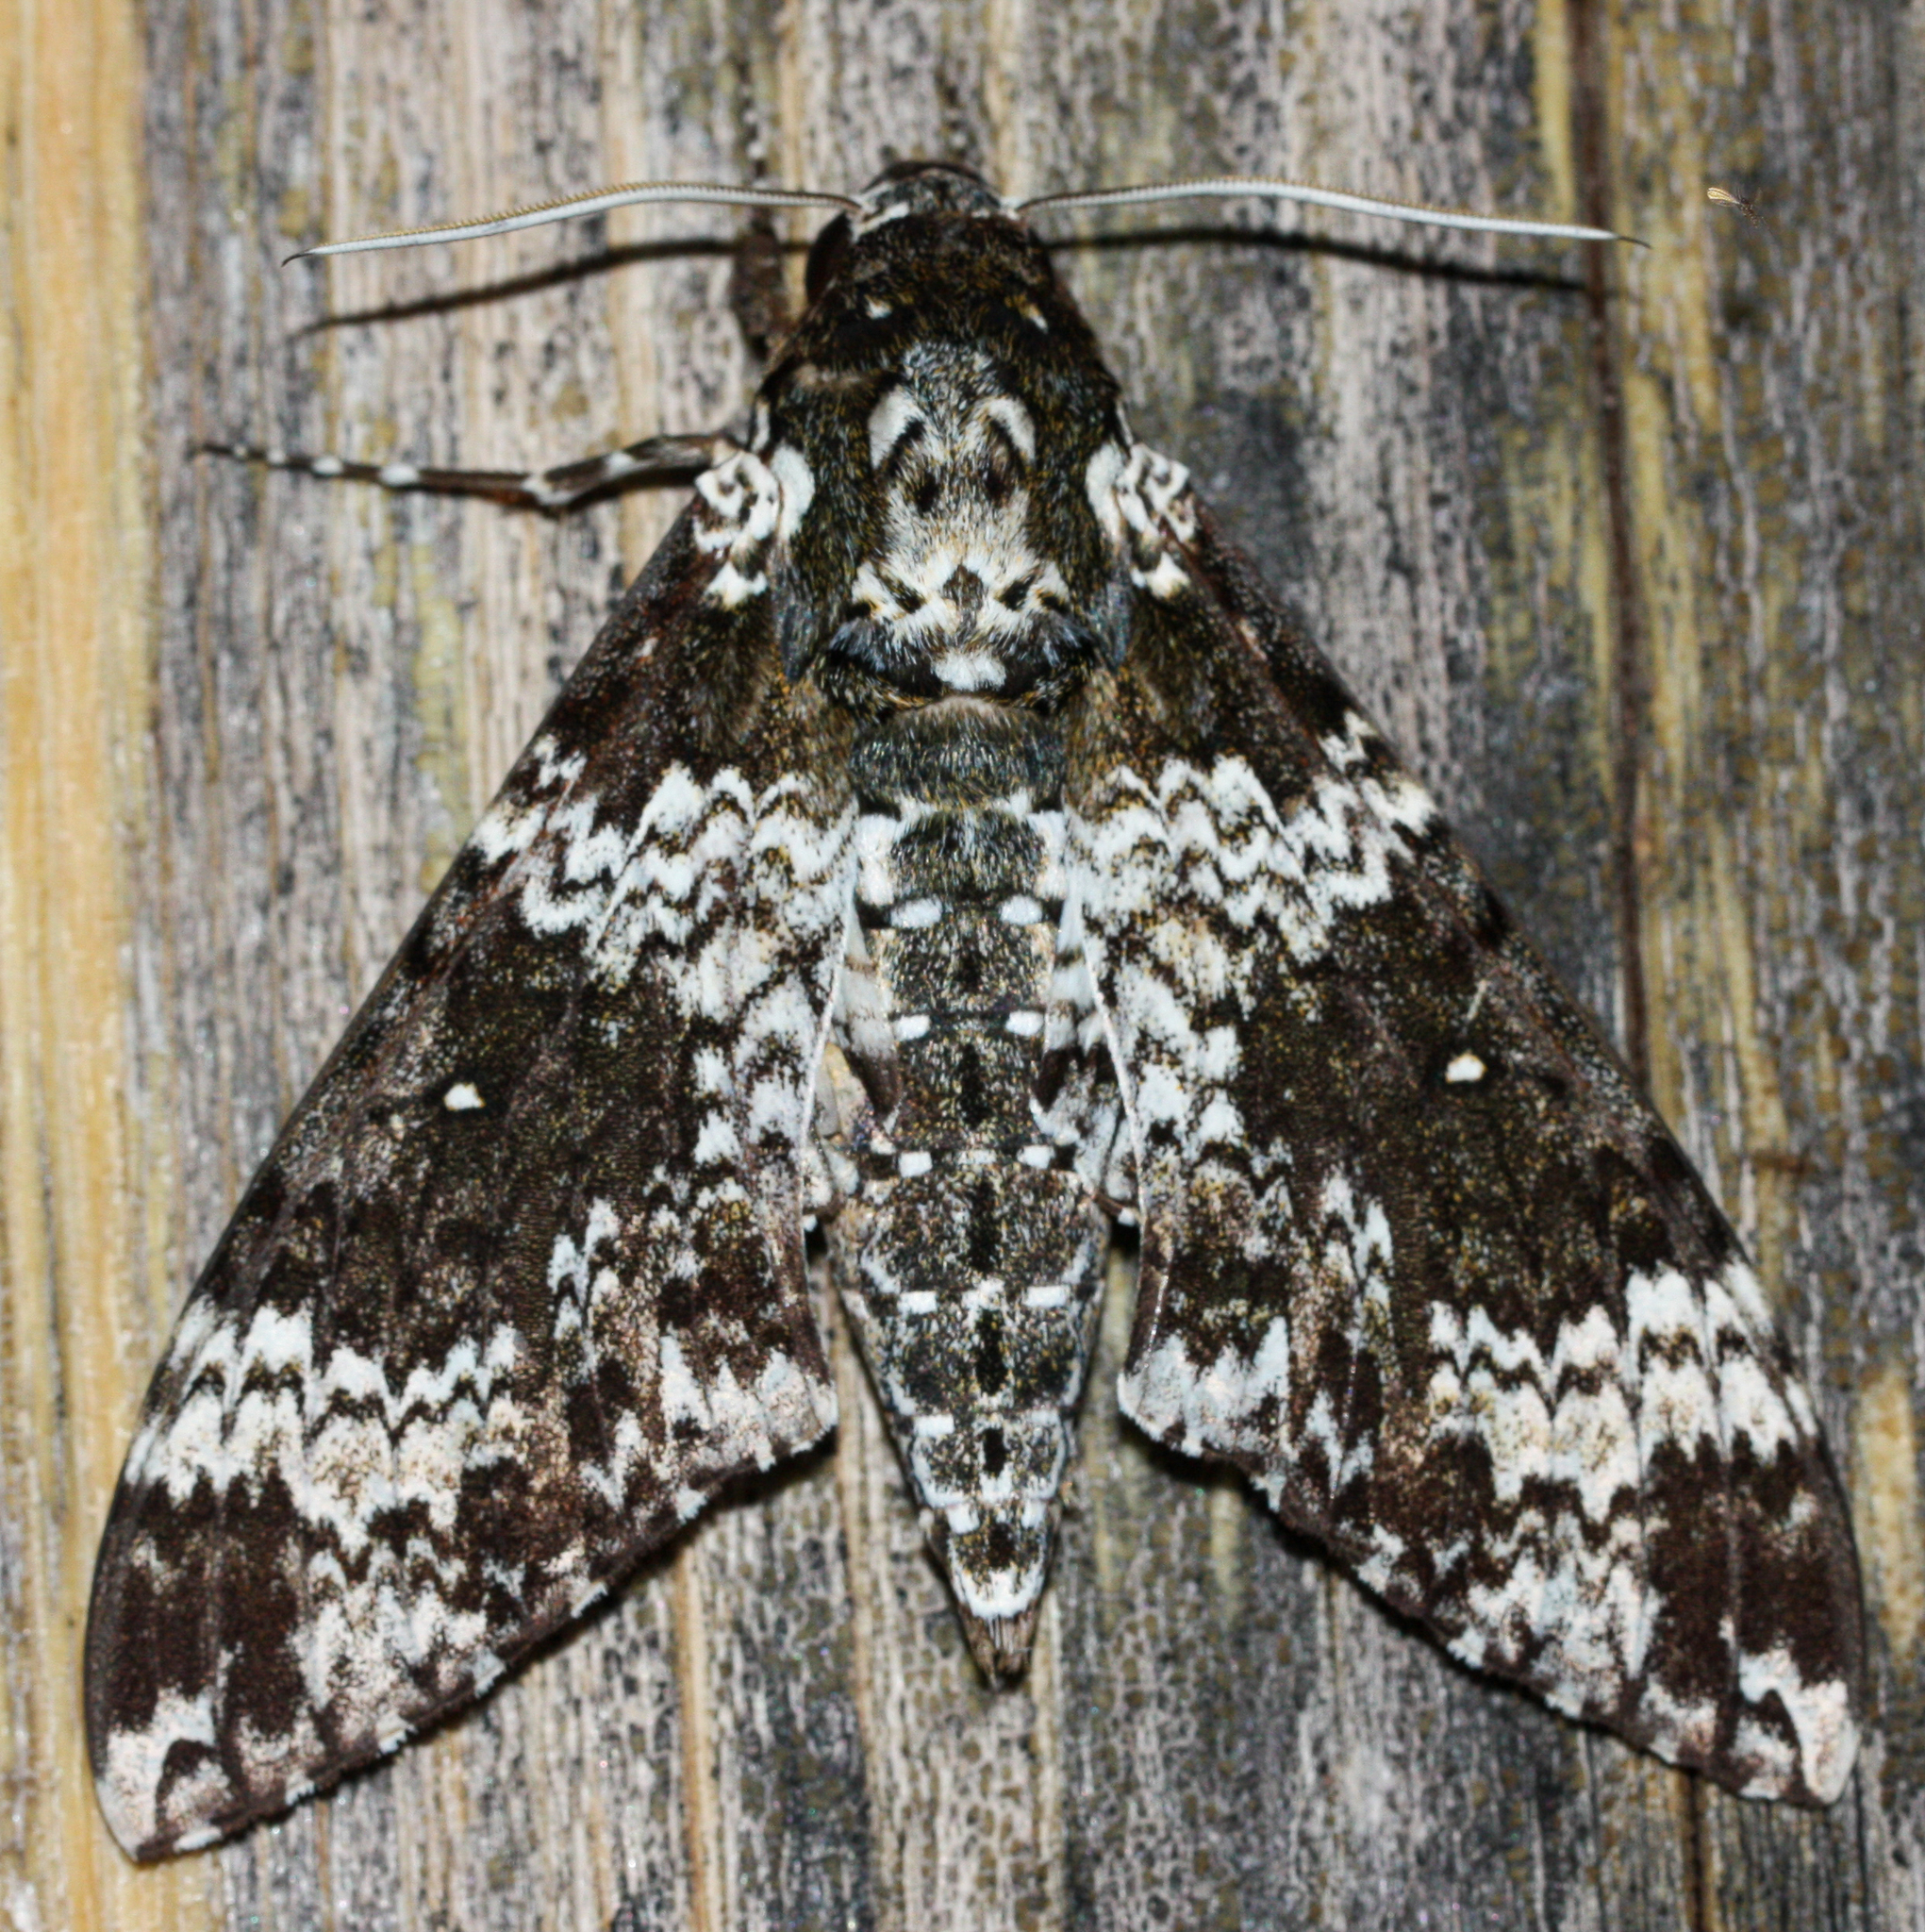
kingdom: Animalia
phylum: Arthropoda
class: Insecta
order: Lepidoptera
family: Sphingidae
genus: Manduca
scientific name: Manduca rustica
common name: Rustic sphinx
